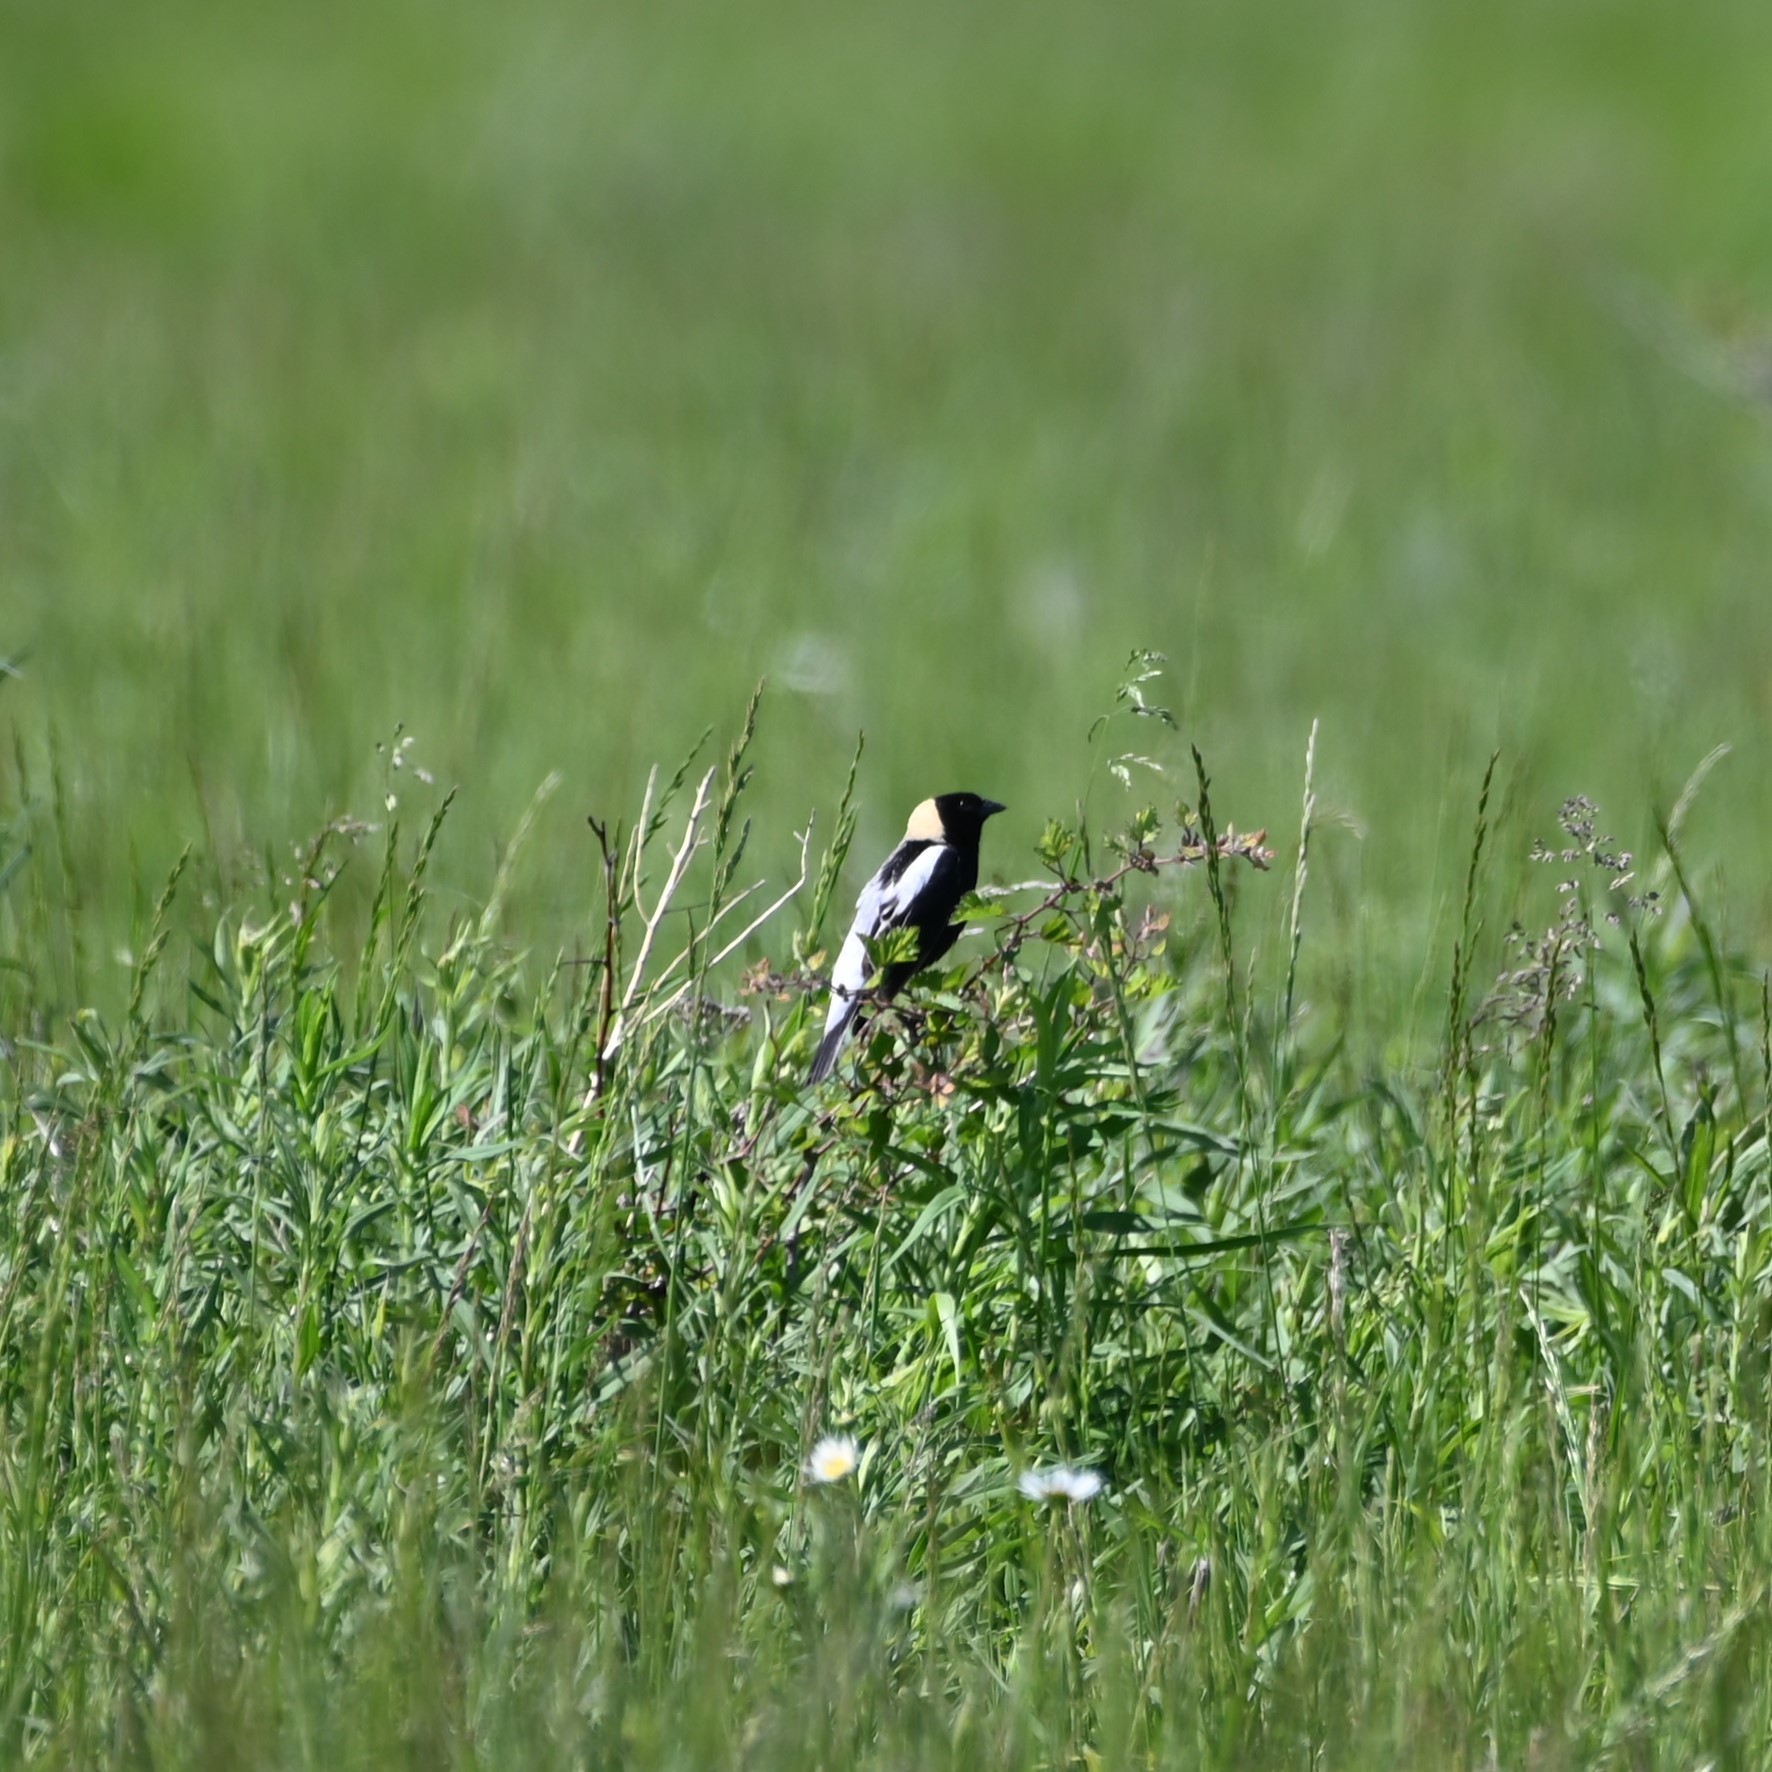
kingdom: Animalia
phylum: Chordata
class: Aves
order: Passeriformes
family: Icteridae
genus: Dolichonyx
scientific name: Dolichonyx oryzivorus
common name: Bobolink
